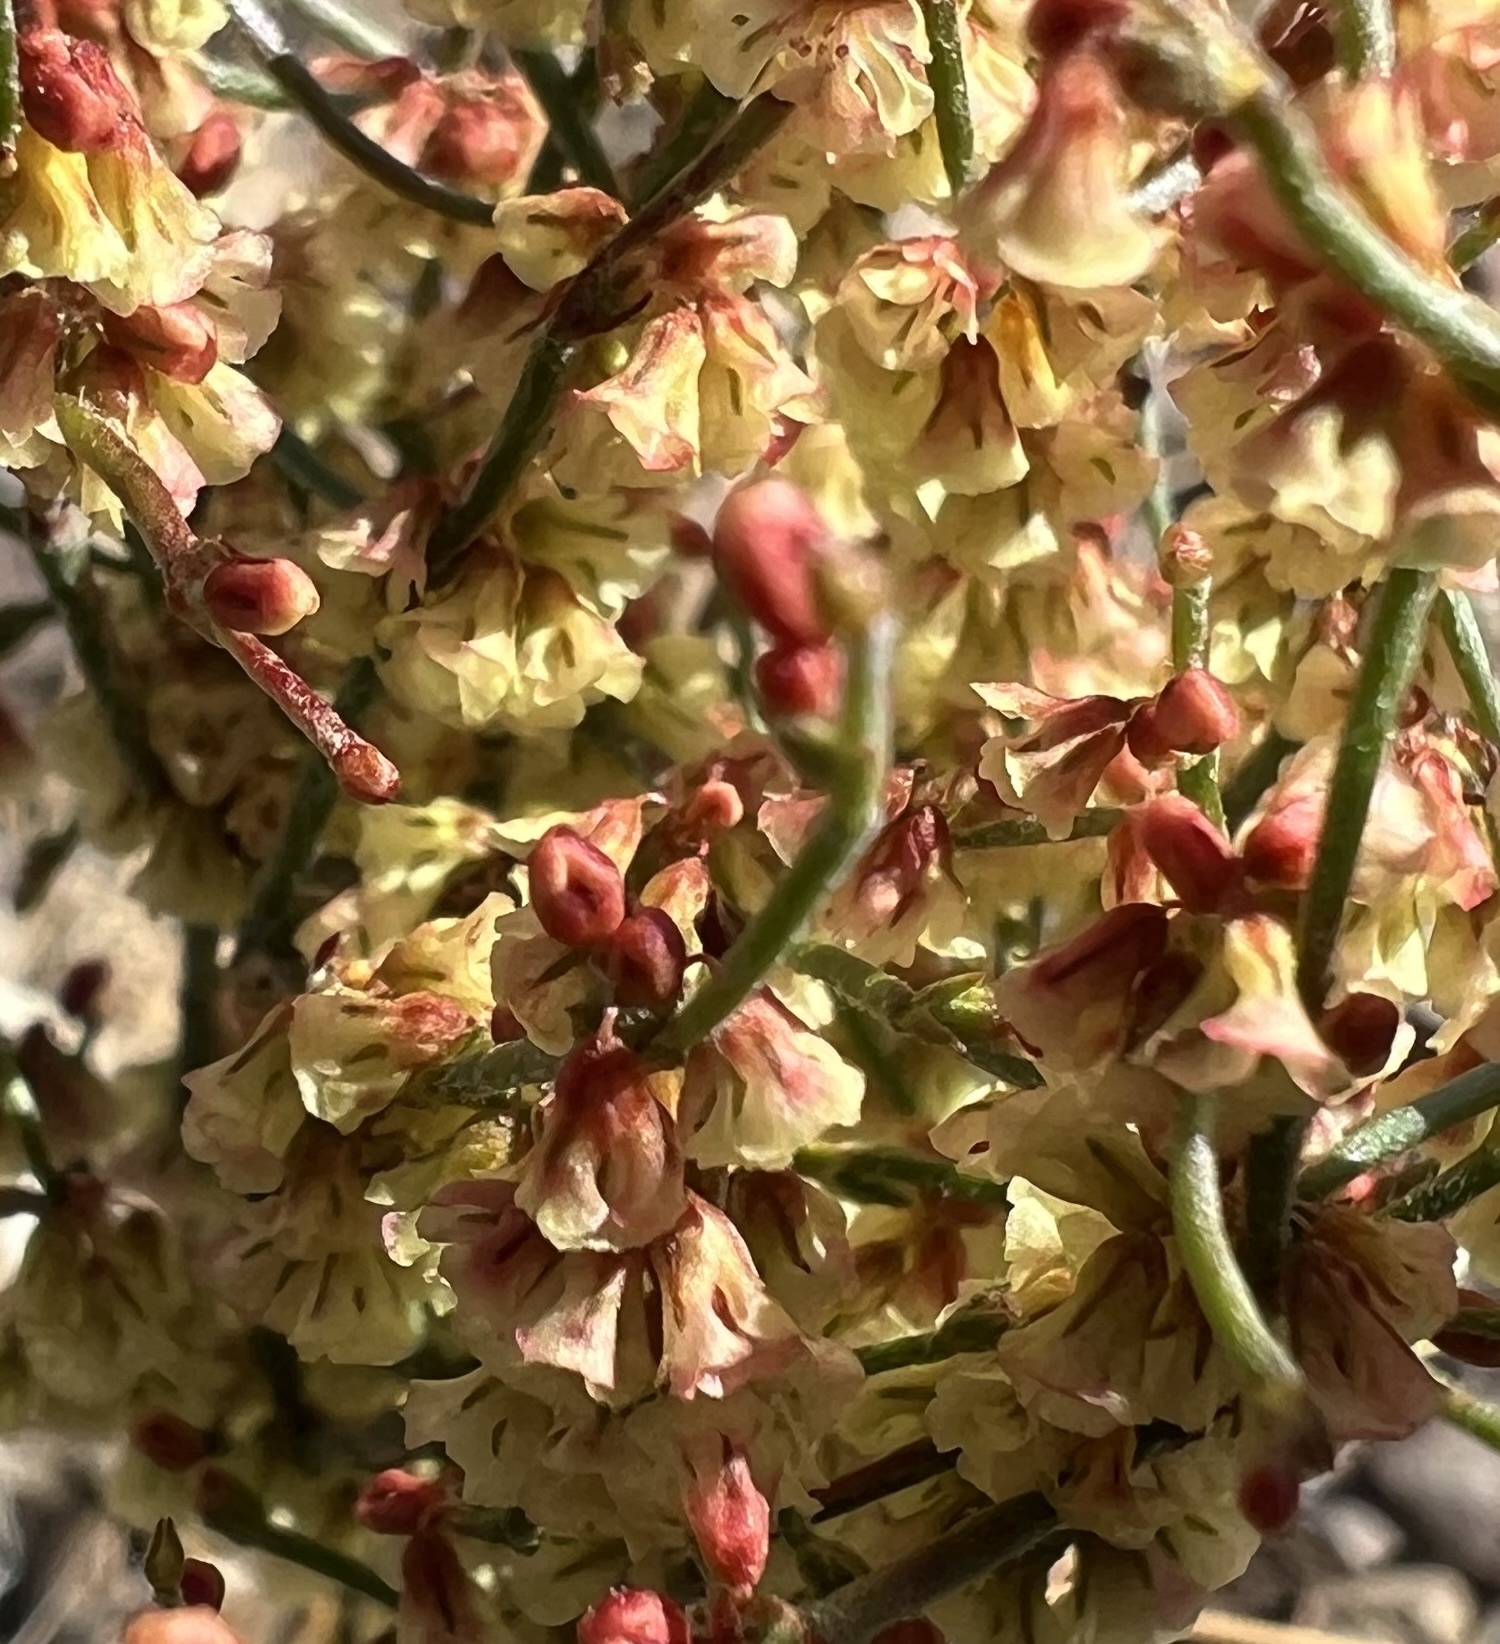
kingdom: Plantae
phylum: Tracheophyta
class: Magnoliopsida
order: Caryophyllales
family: Polygonaceae
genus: Eriogonum
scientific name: Eriogonum nidularium
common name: Bird's-nest wild buckwheat
